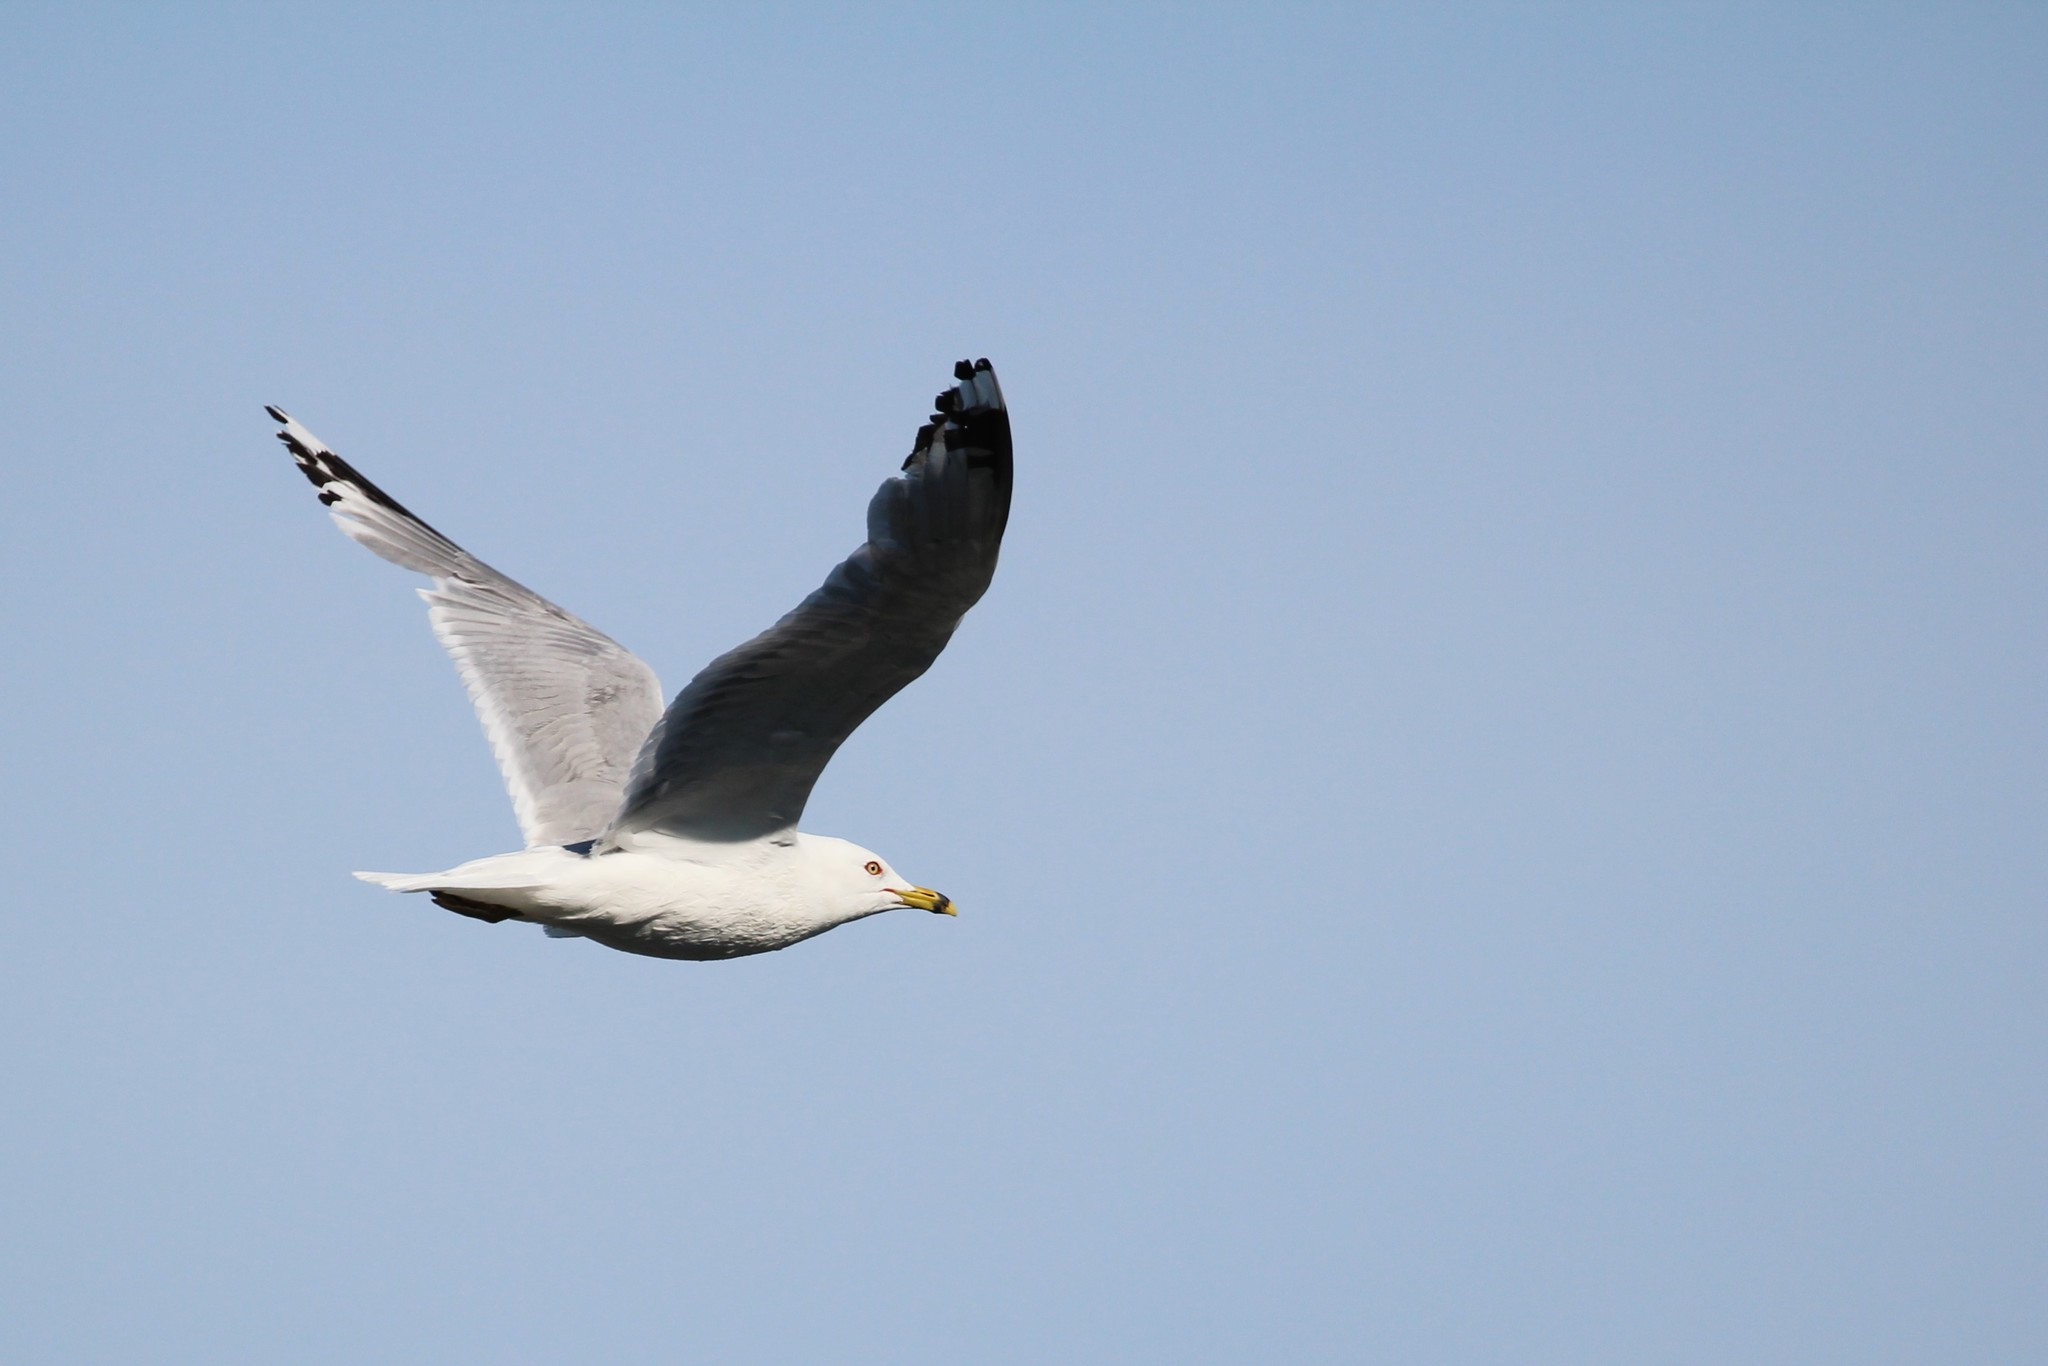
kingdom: Animalia
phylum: Chordata
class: Aves
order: Charadriiformes
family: Laridae
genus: Larus
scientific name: Larus delawarensis
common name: Ring-billed gull
